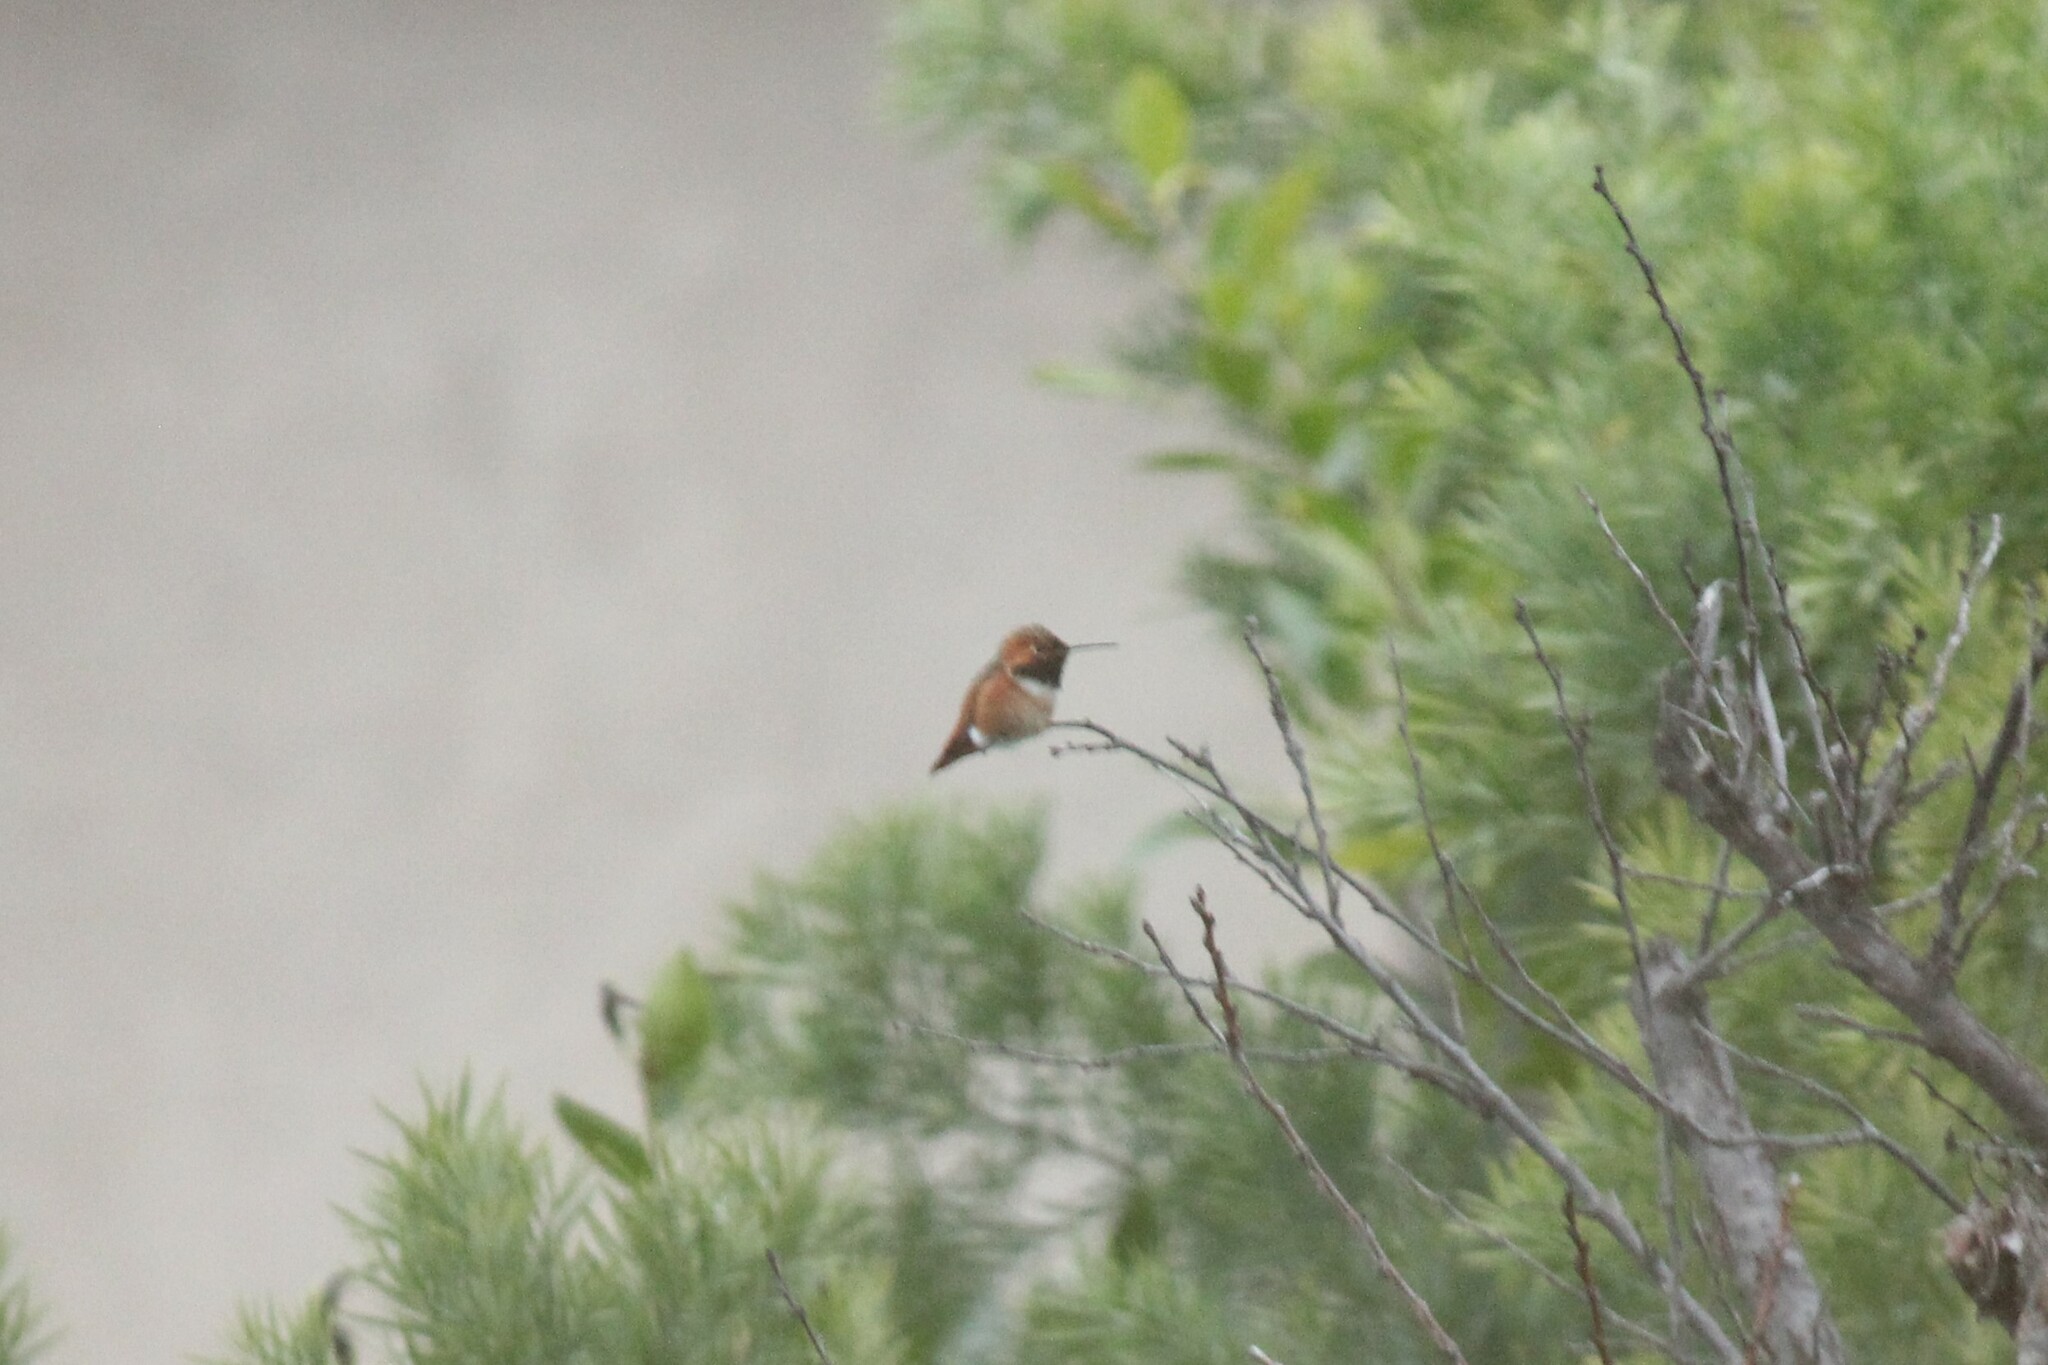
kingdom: Animalia
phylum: Chordata
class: Aves
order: Apodiformes
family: Trochilidae
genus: Selasphorus
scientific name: Selasphorus sasin
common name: Allen's hummingbird
